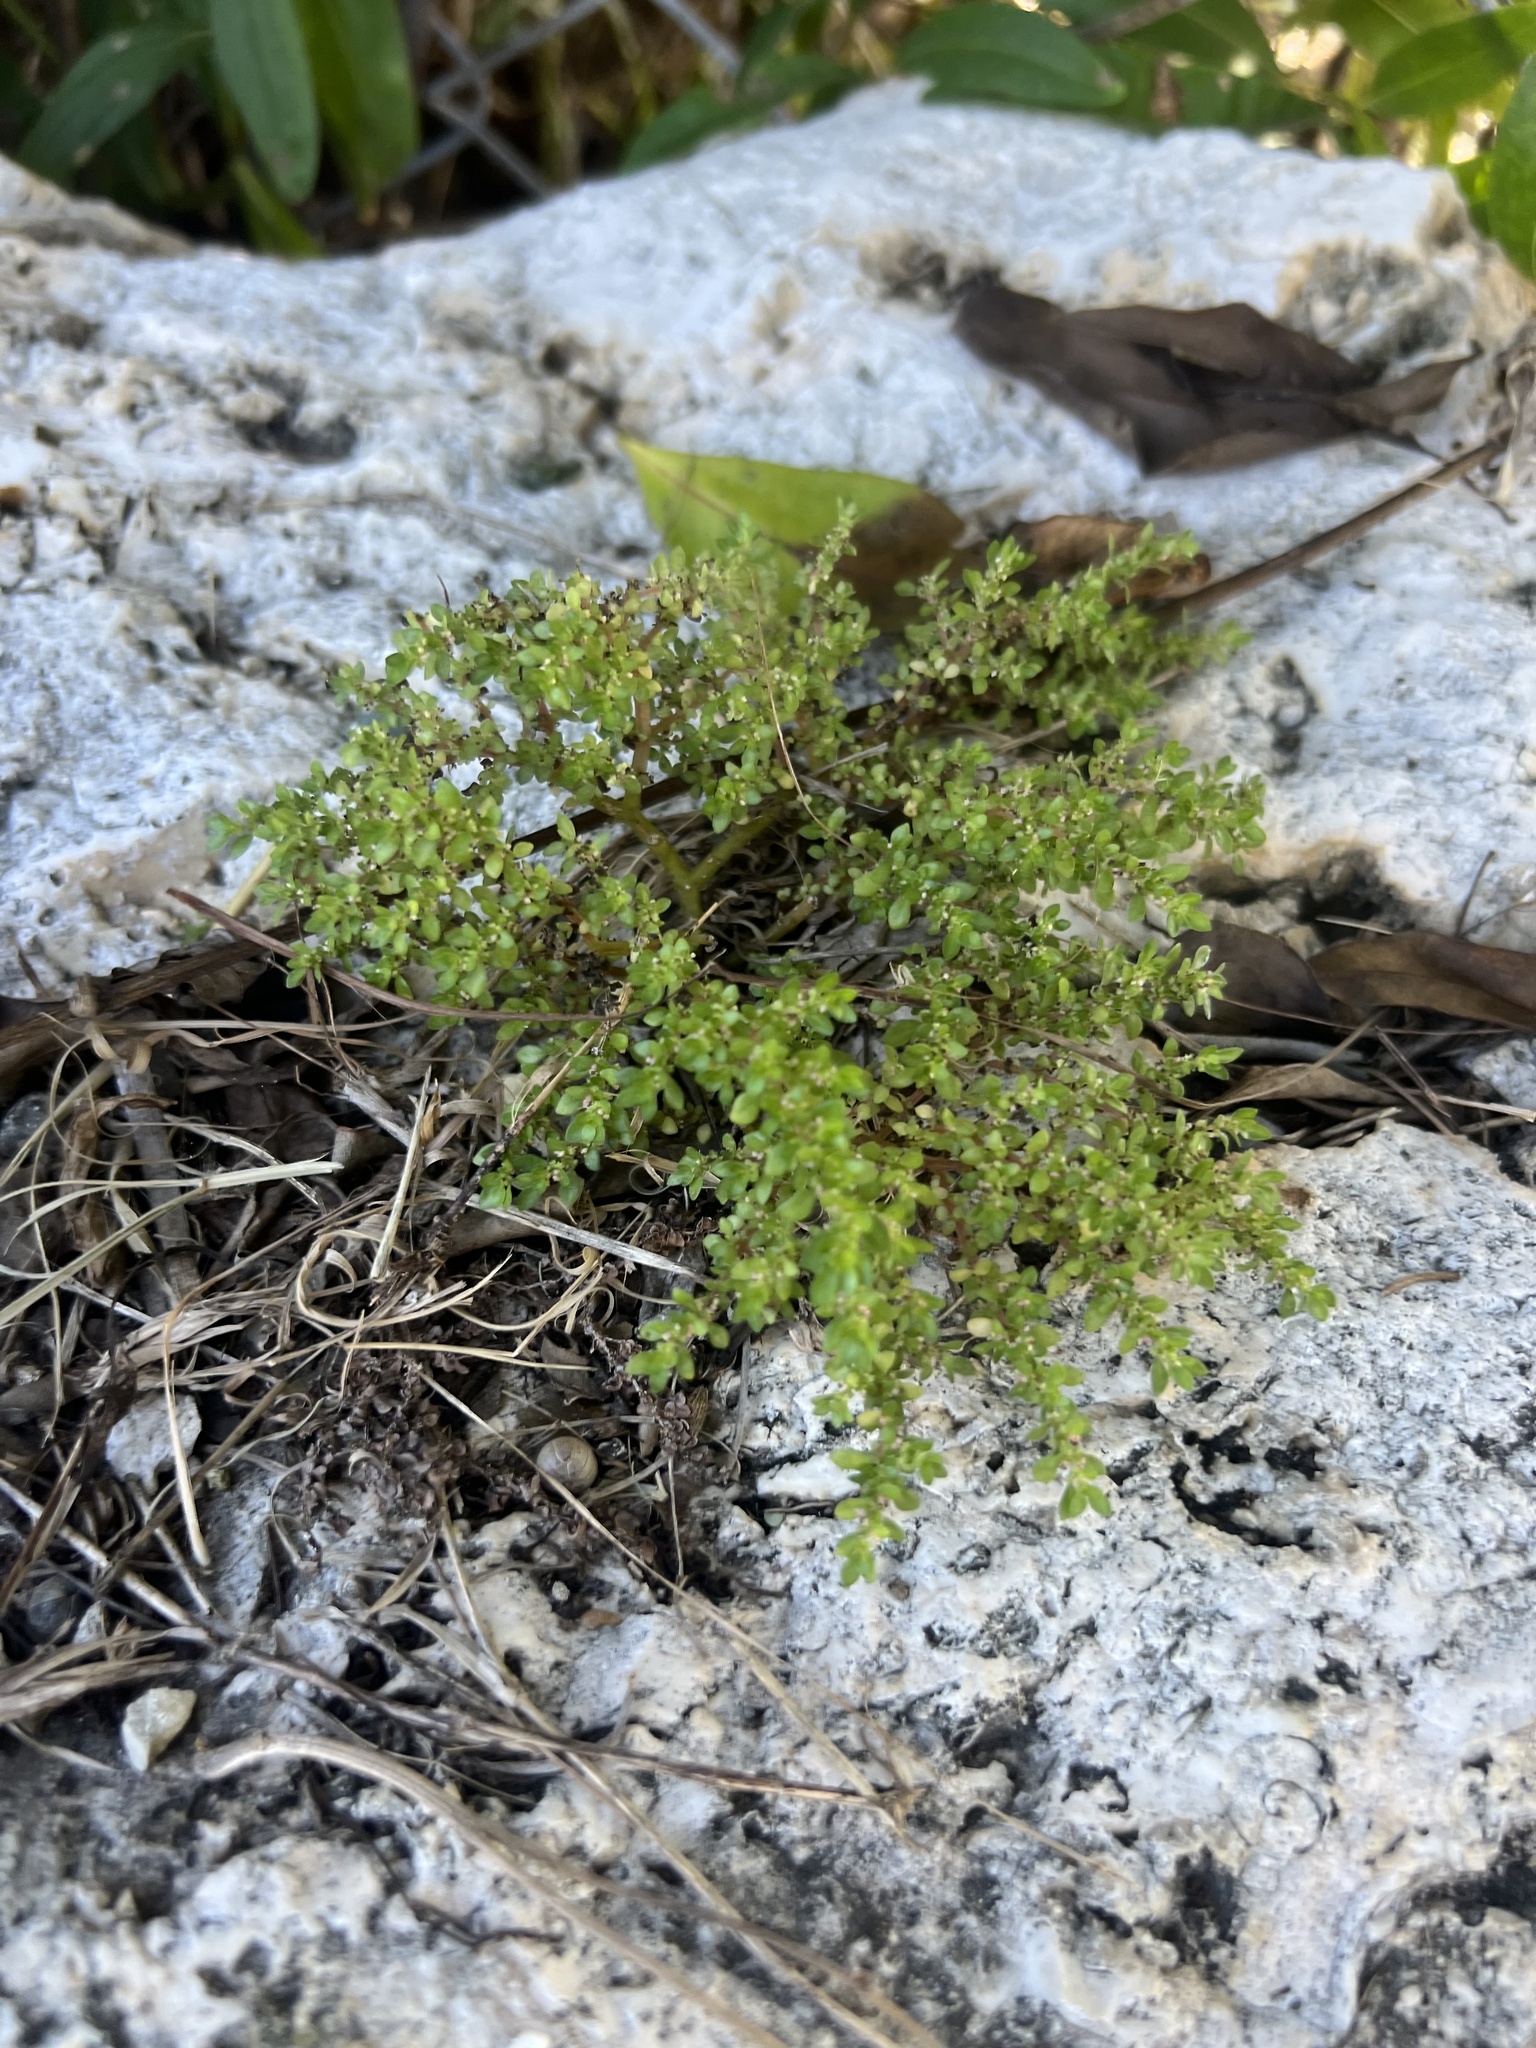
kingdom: Plantae
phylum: Tracheophyta
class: Magnoliopsida
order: Rosales
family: Urticaceae
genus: Pilea
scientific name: Pilea microphylla
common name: Artillery-plant
